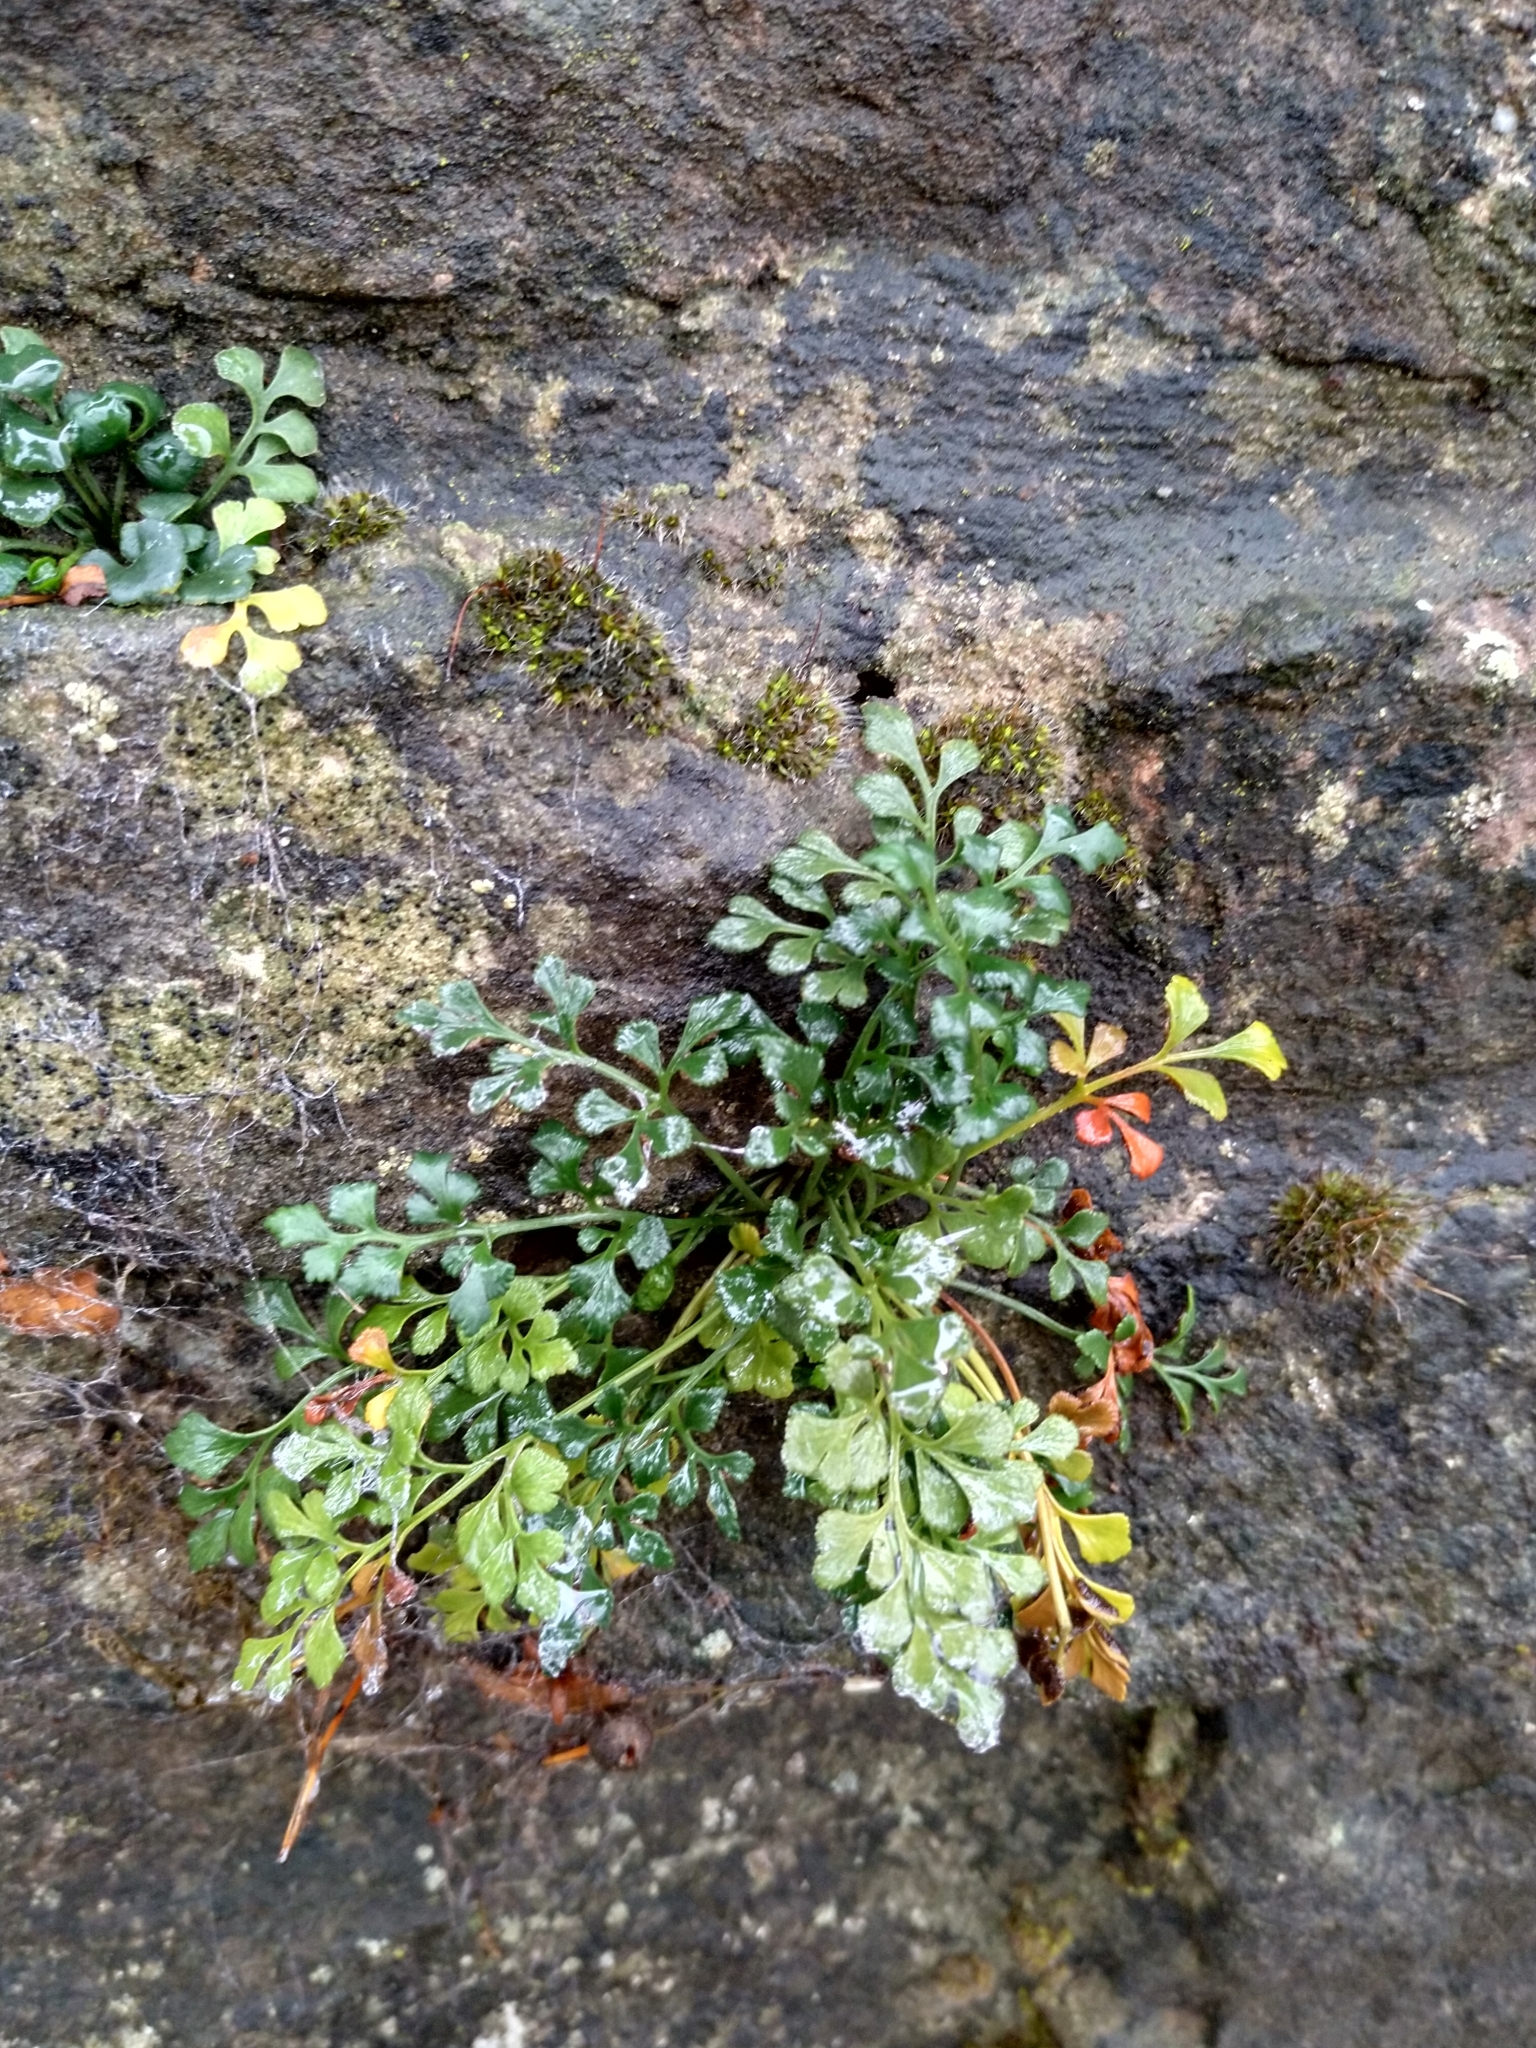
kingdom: Plantae
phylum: Tracheophyta
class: Polypodiopsida
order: Polypodiales
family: Aspleniaceae
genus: Asplenium
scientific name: Asplenium ruta-muraria
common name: Wall-rue
